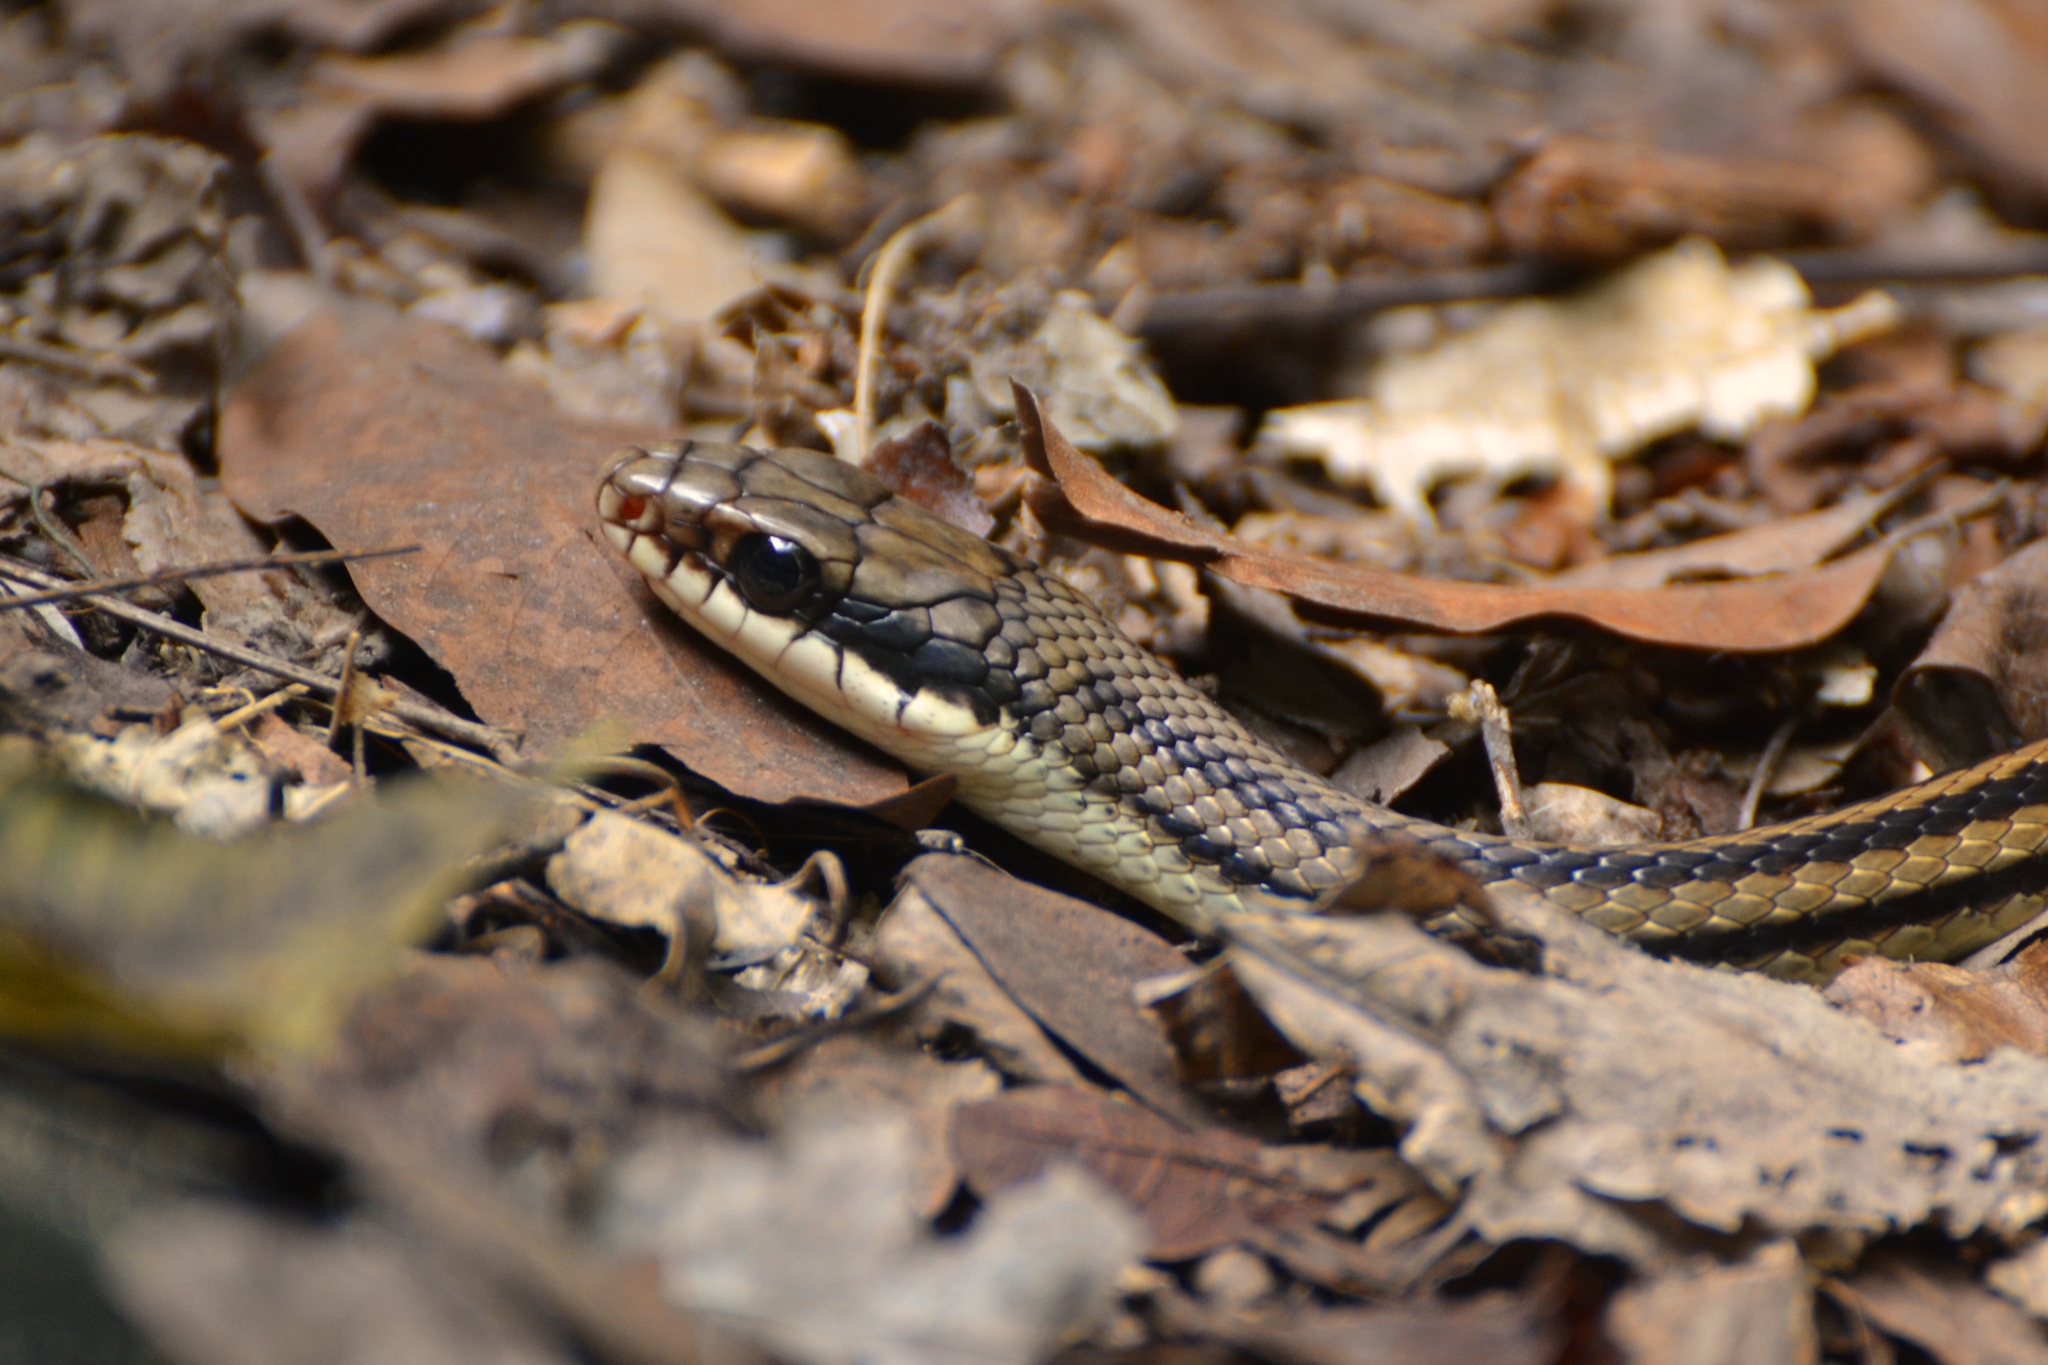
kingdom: Animalia
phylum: Chordata
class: Squamata
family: Colubridae
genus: Salvadora
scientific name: Salvadora lemniscata
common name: Pacific patchnose snake
